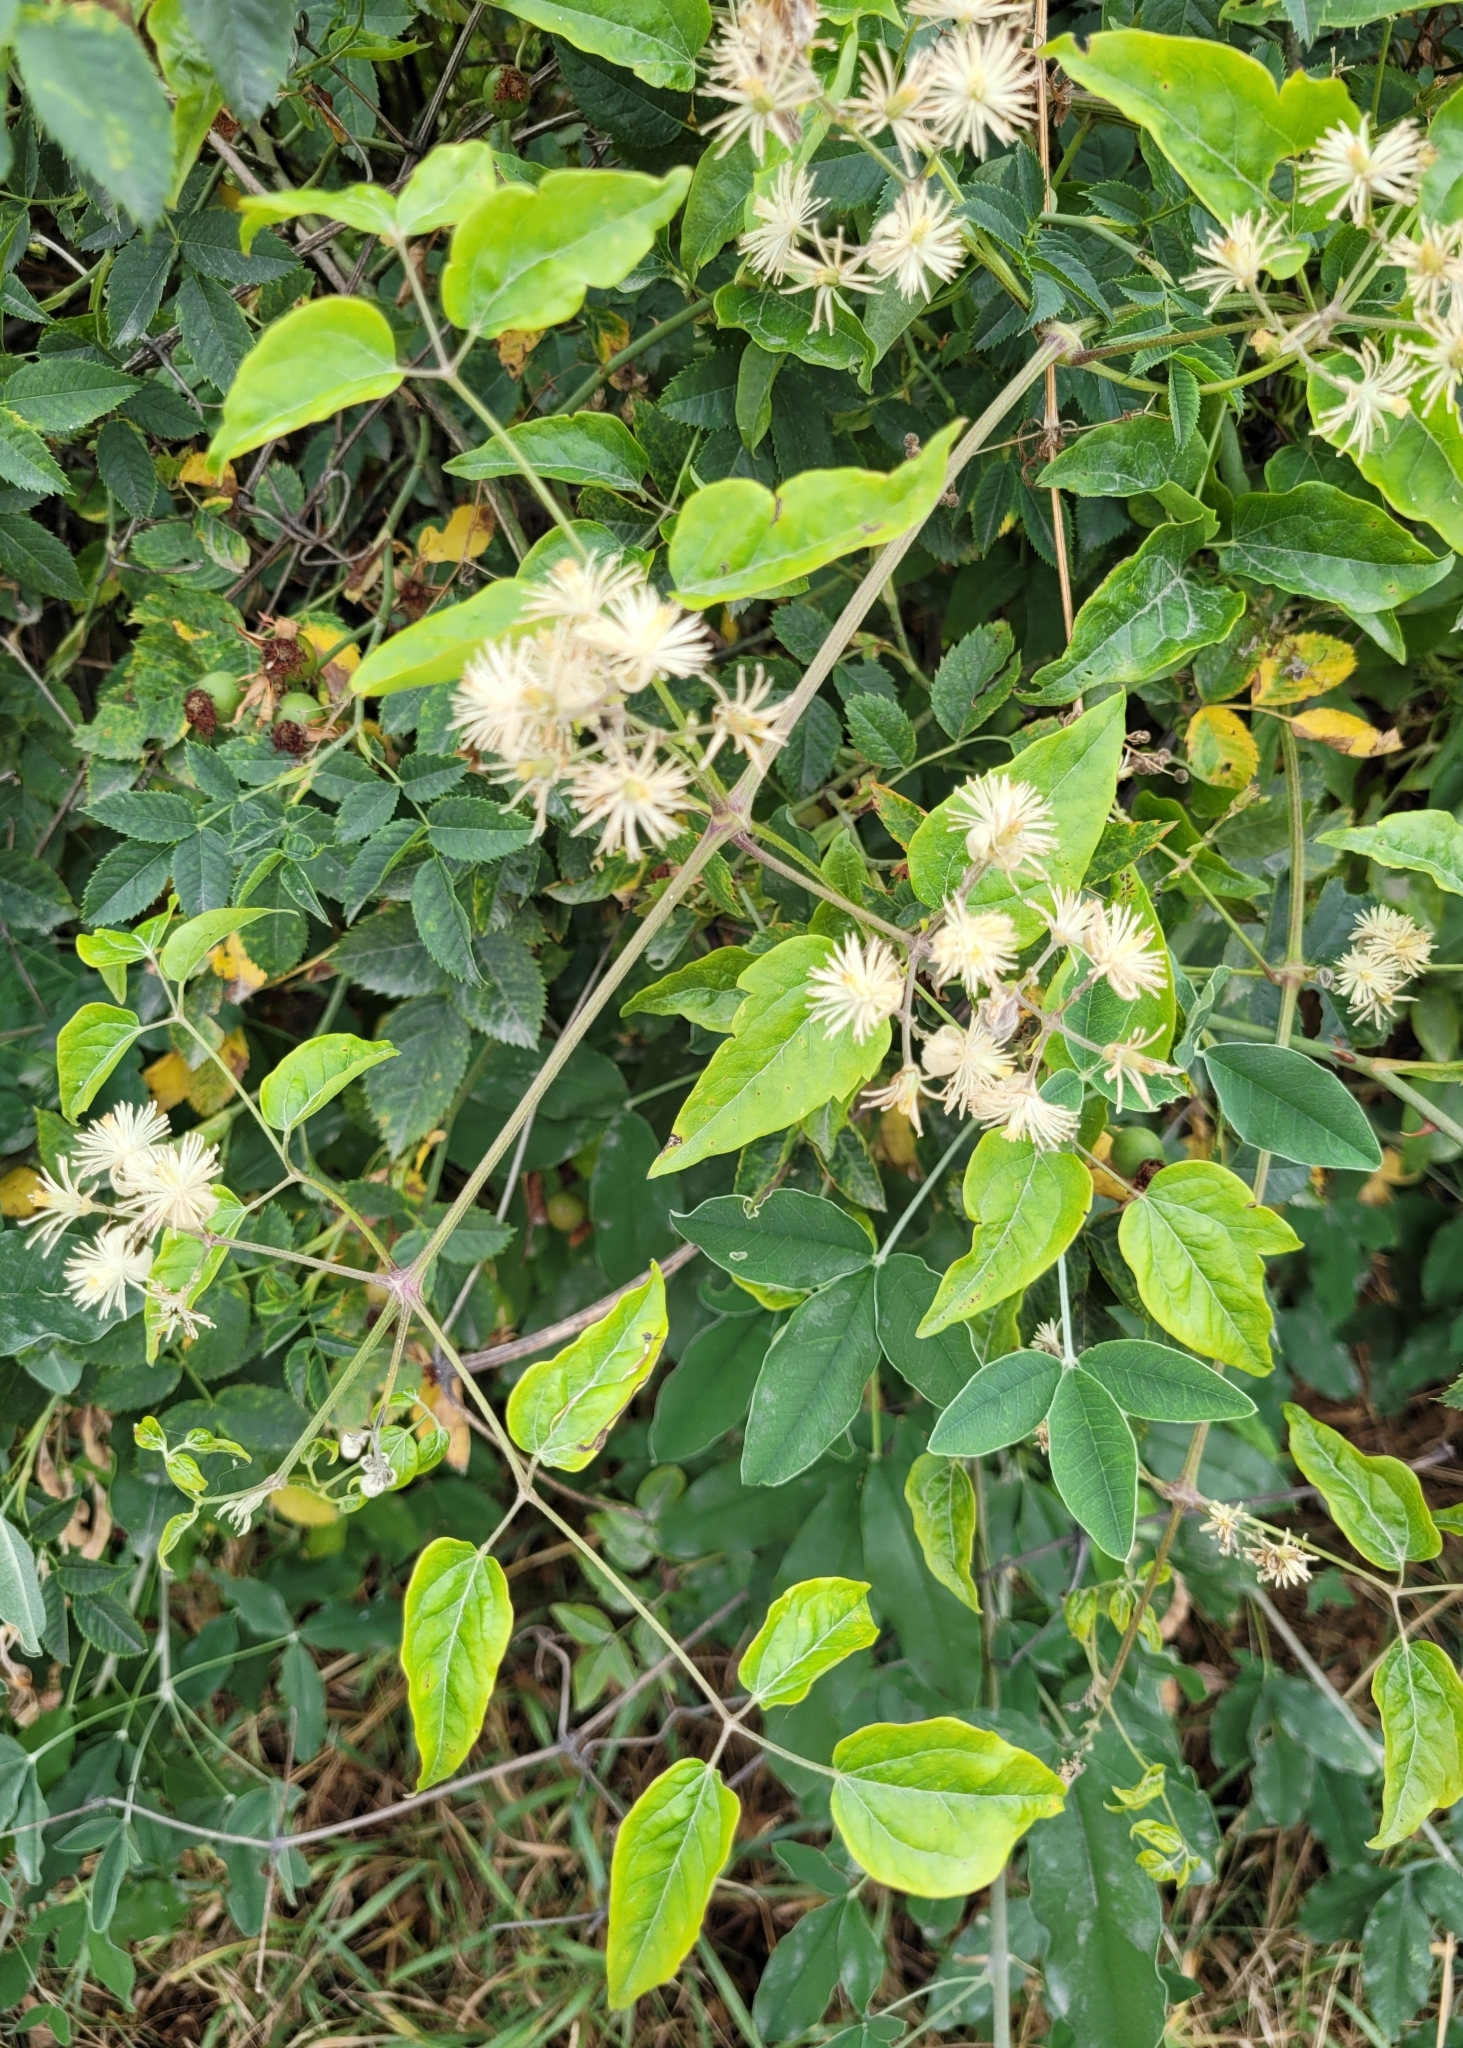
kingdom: Plantae
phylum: Tracheophyta
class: Magnoliopsida
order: Ranunculales
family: Ranunculaceae
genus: Clematis
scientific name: Clematis vitalba
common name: Evergreen clematis
